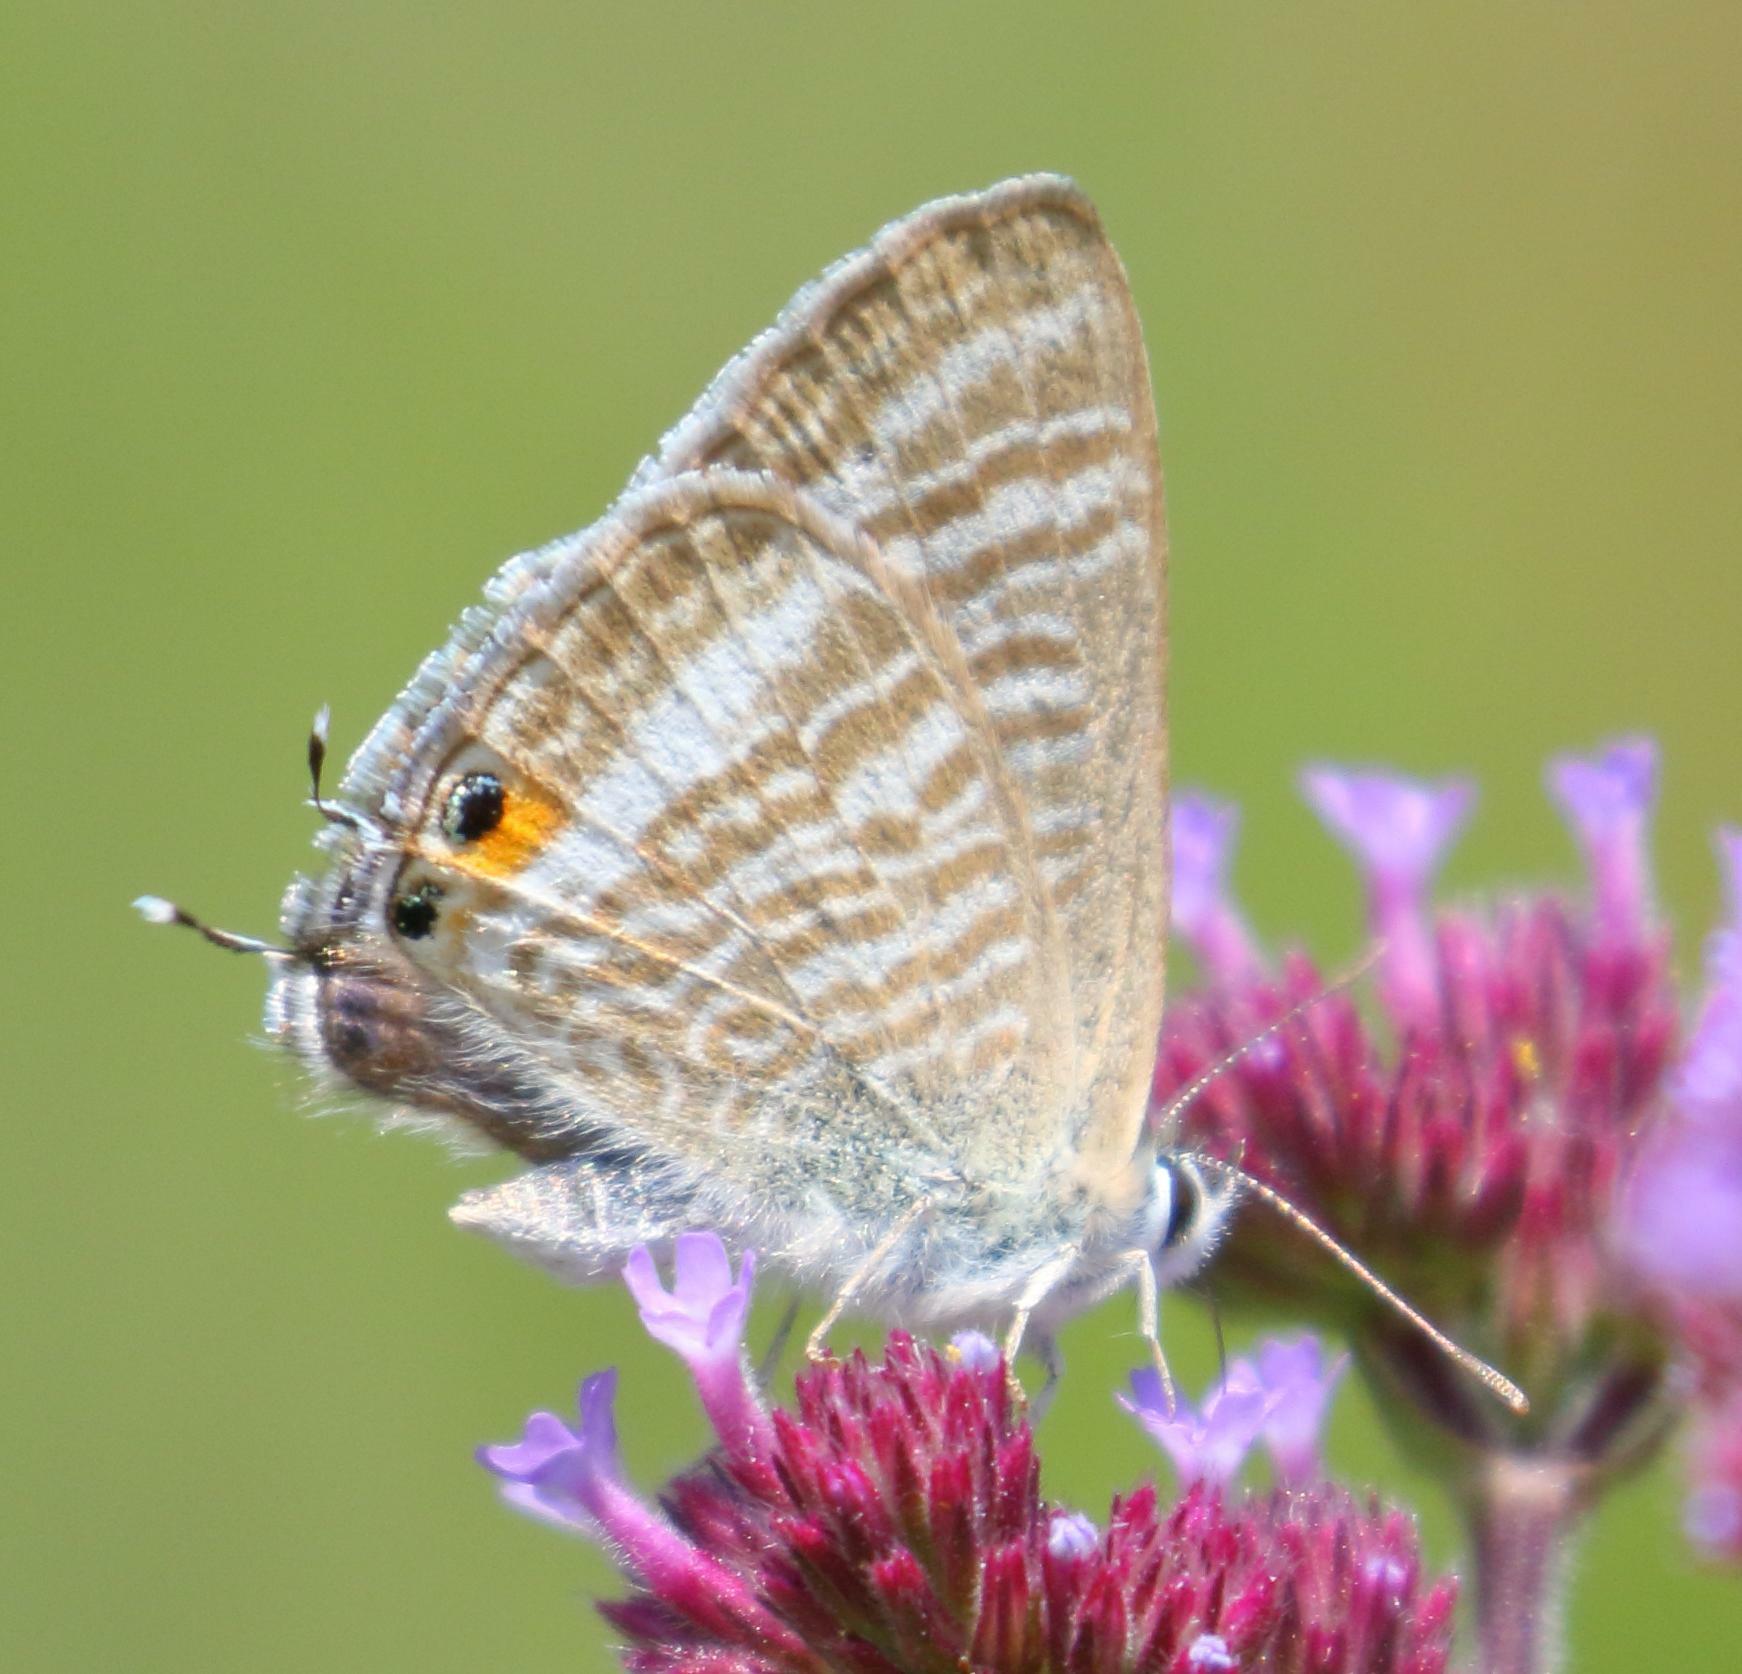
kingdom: Animalia
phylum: Arthropoda
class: Insecta
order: Lepidoptera
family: Lycaenidae
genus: Lampides
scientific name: Lampides boeticus
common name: Long-tailed blue
